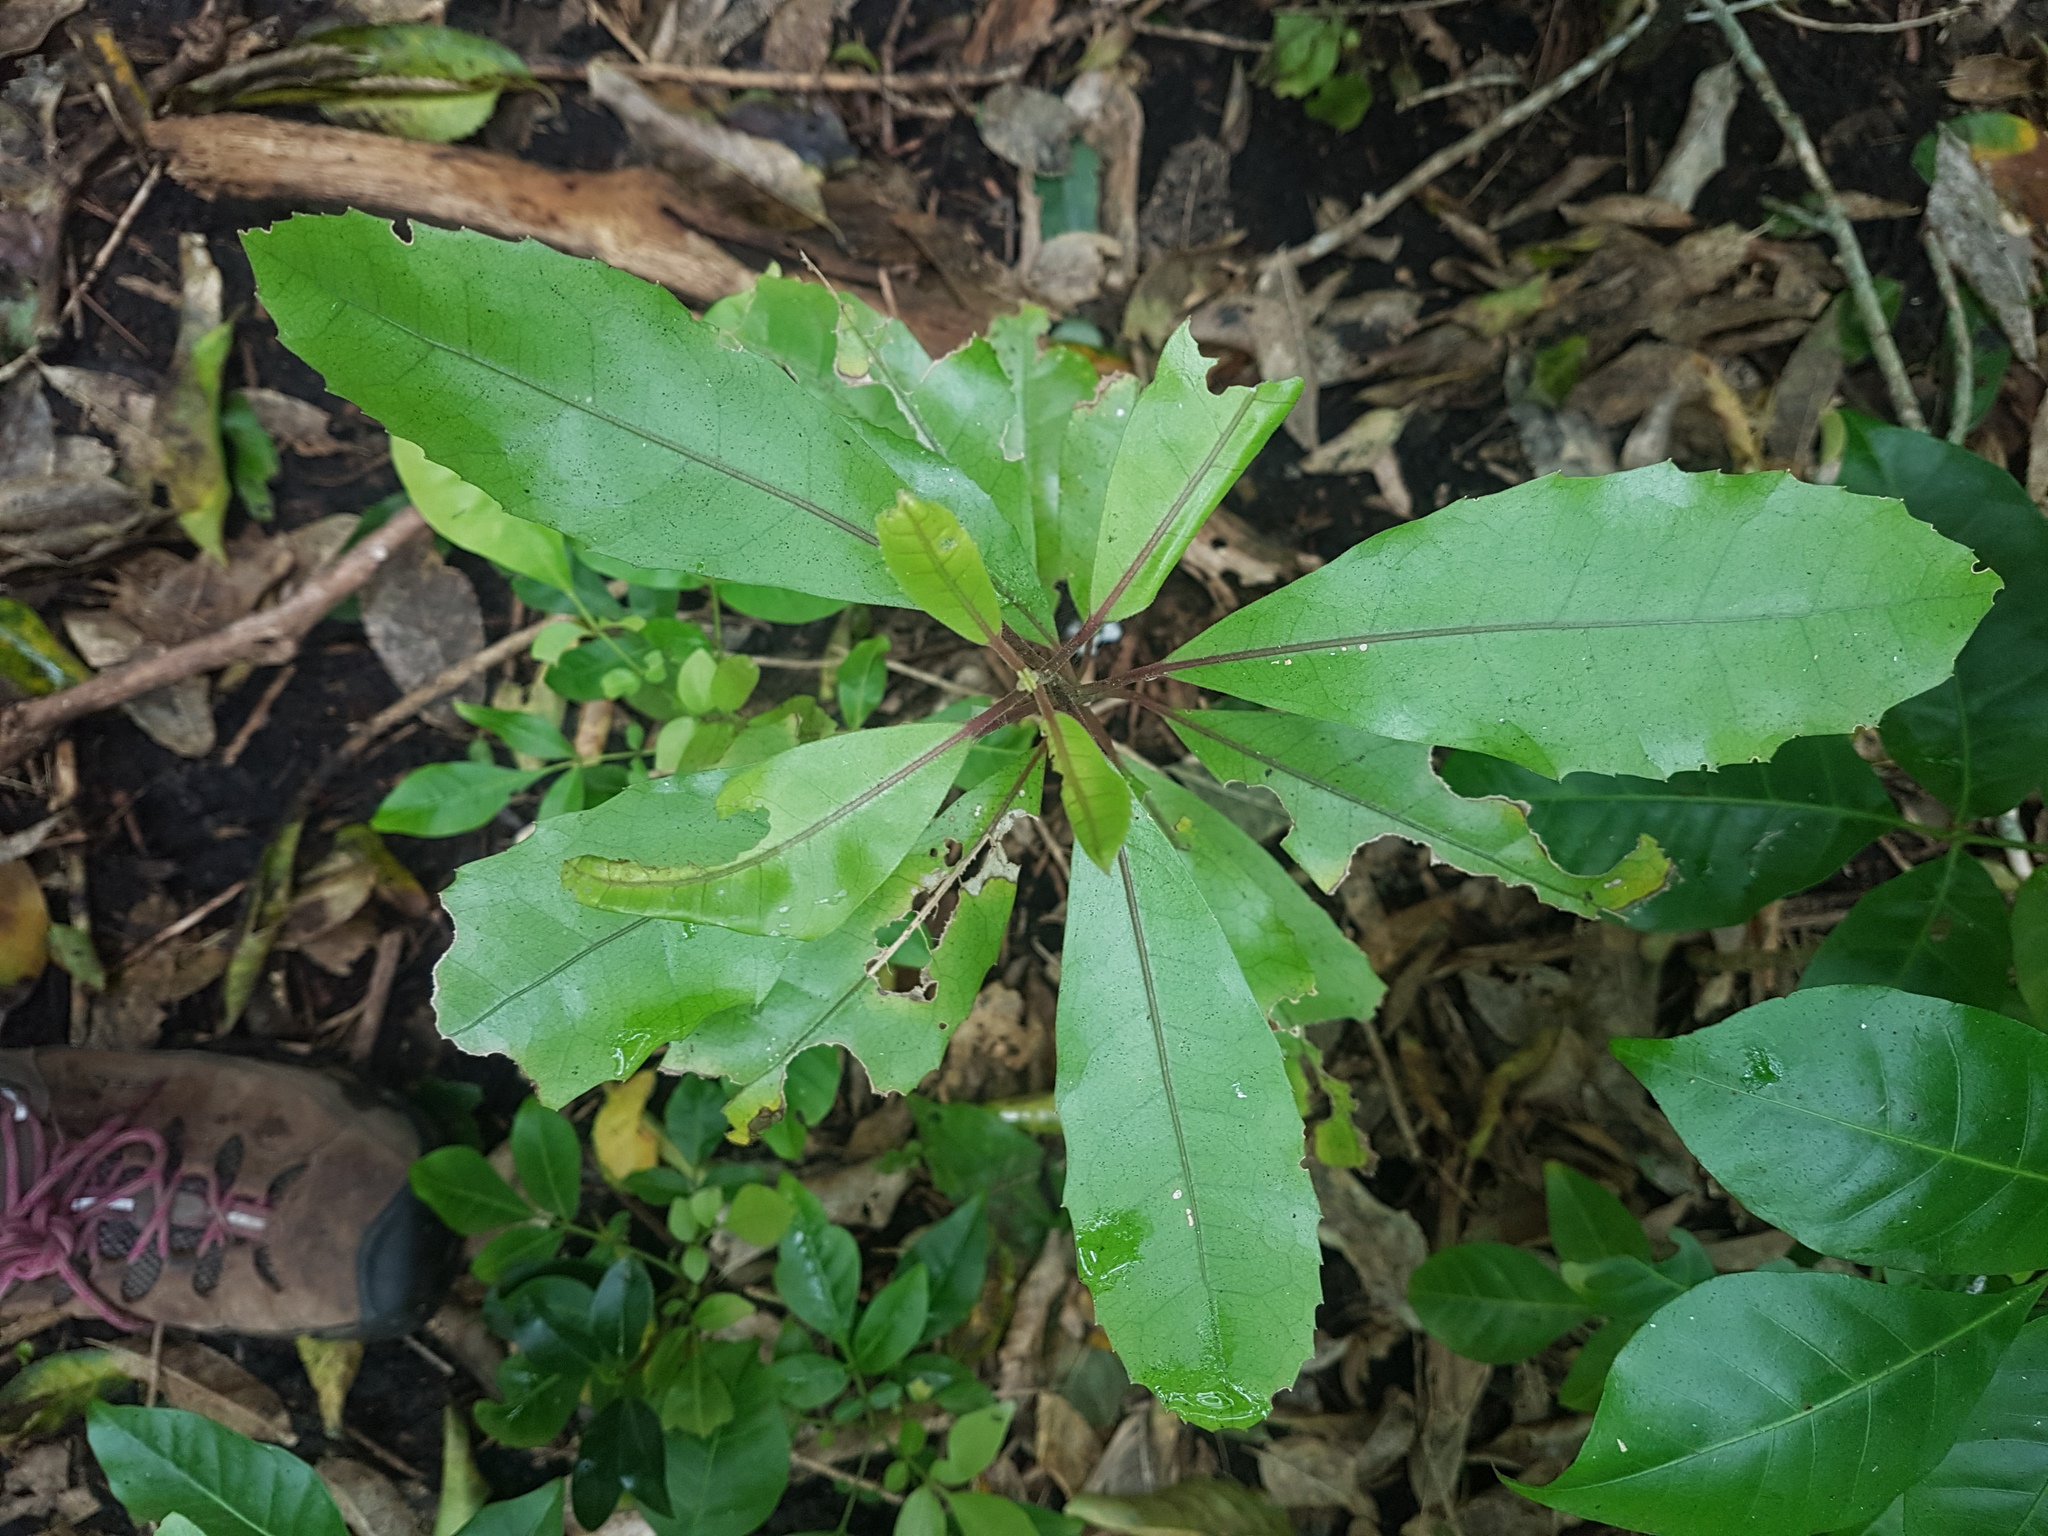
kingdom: Plantae
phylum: Tracheophyta
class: Magnoliopsida
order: Laurales
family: Monimiaceae
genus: Hedycarya
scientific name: Hedycarya arborea
